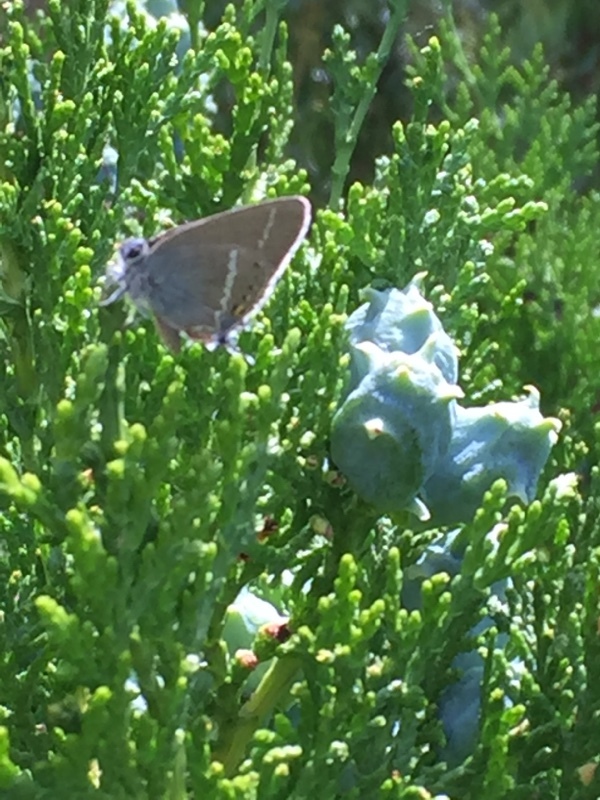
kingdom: Animalia
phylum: Arthropoda
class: Insecta
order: Lepidoptera
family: Lycaenidae
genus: Tuttiola
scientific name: Tuttiola spini
